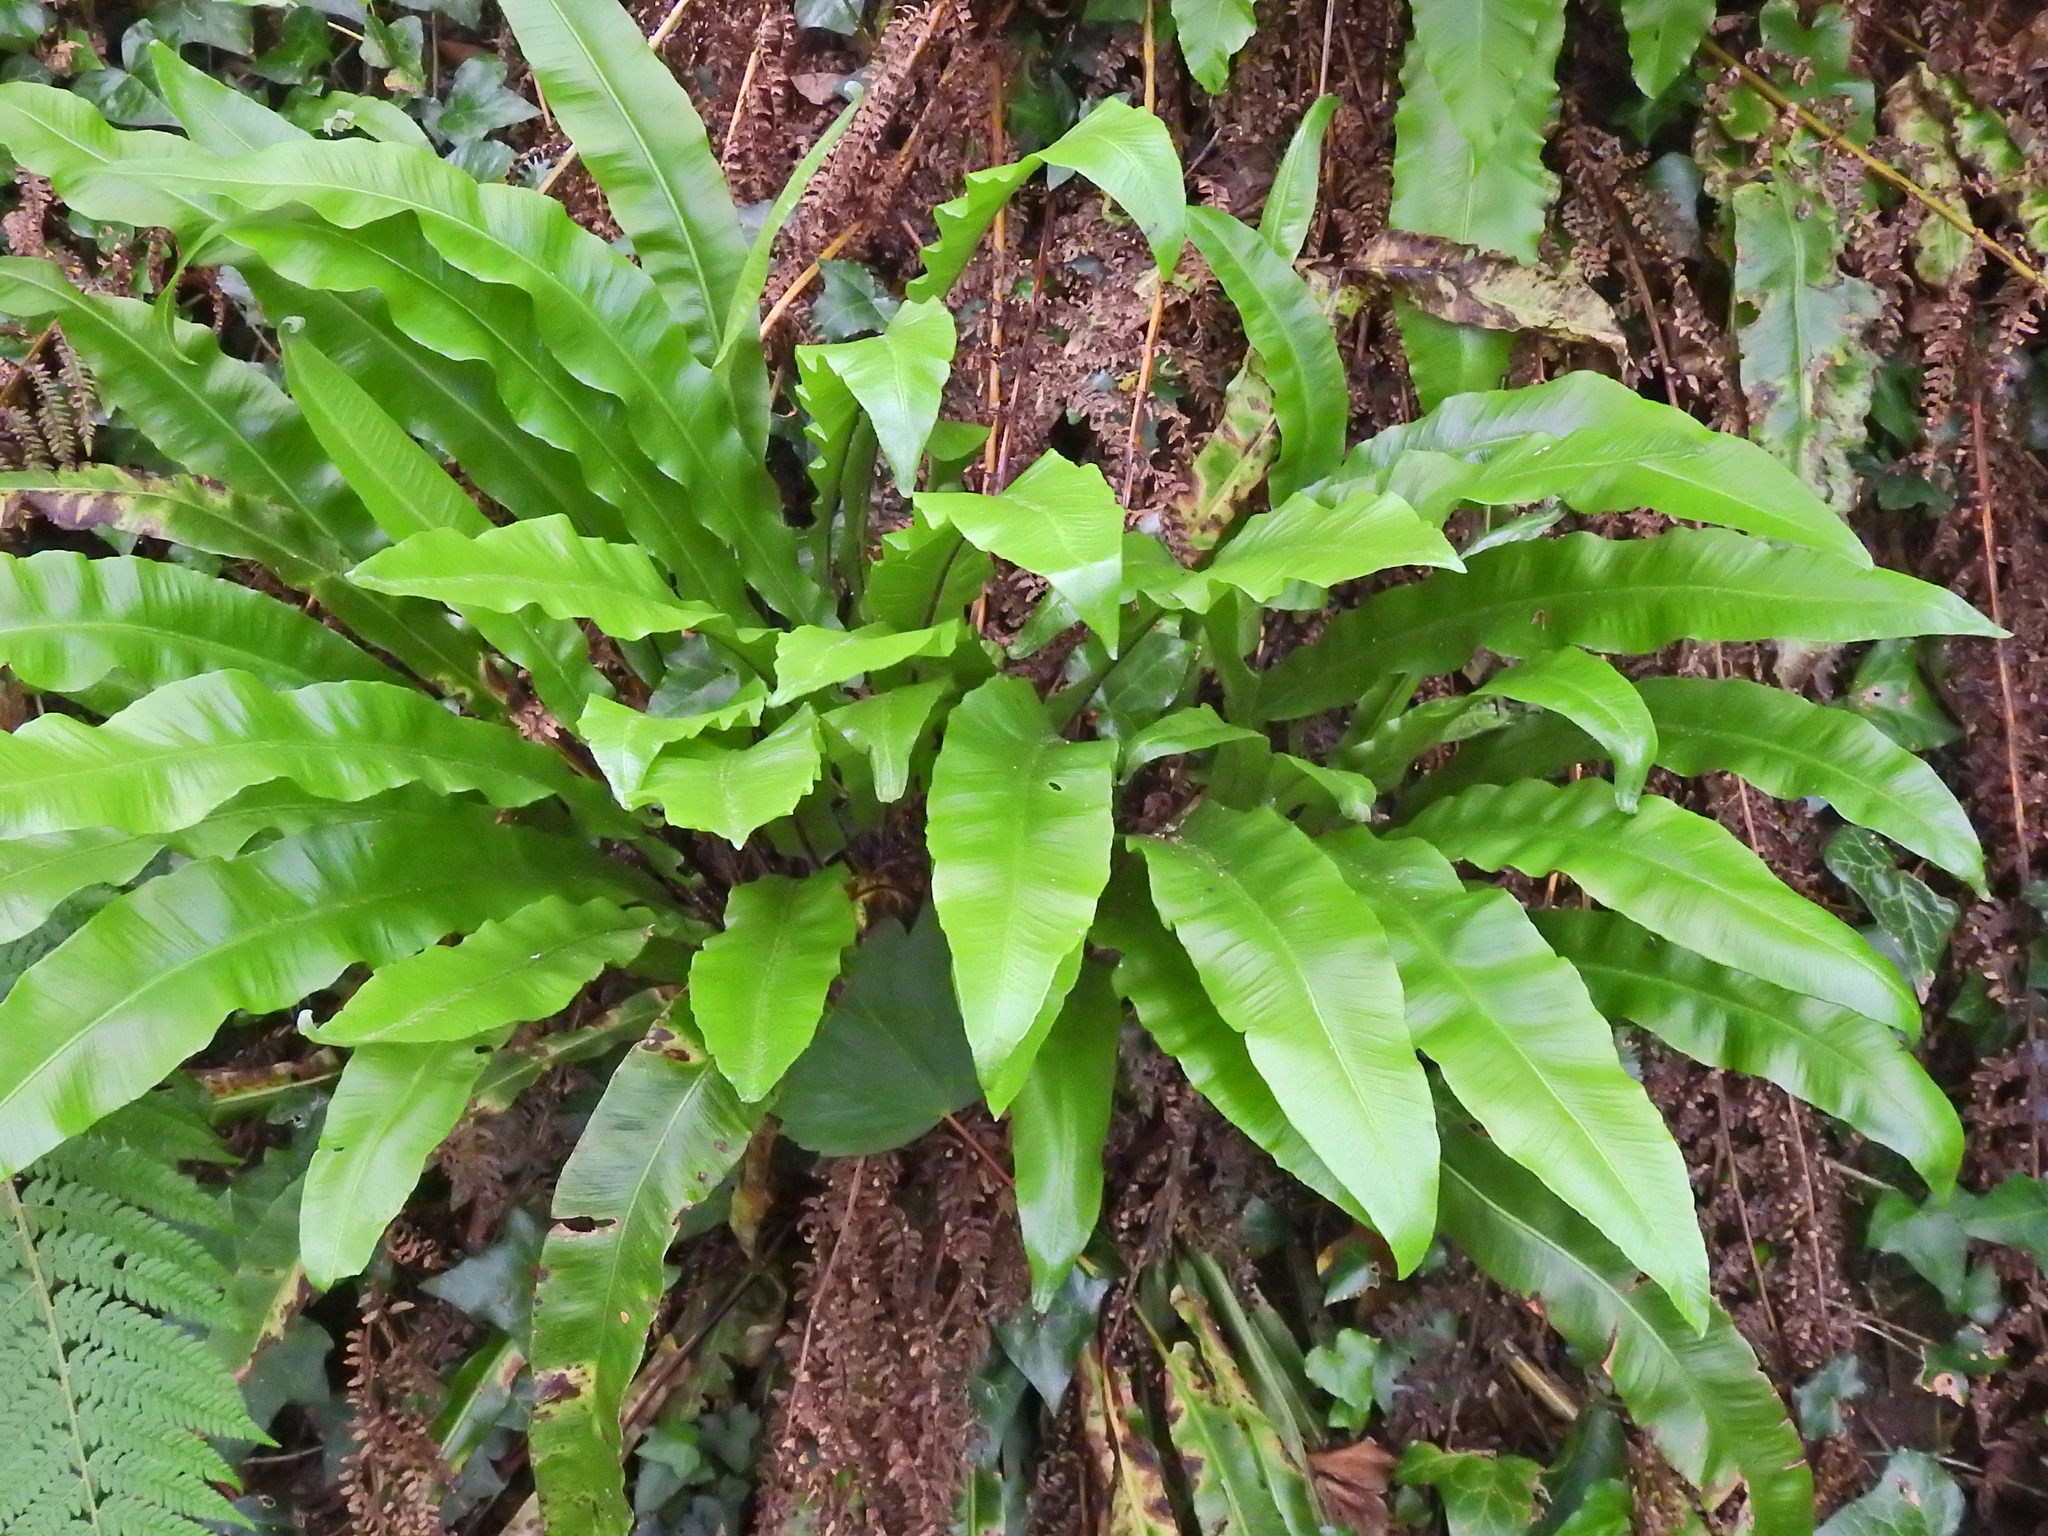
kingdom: Plantae
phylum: Tracheophyta
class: Polypodiopsida
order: Polypodiales
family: Aspleniaceae
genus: Asplenium
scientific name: Asplenium scolopendrium
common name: Hart's-tongue fern
